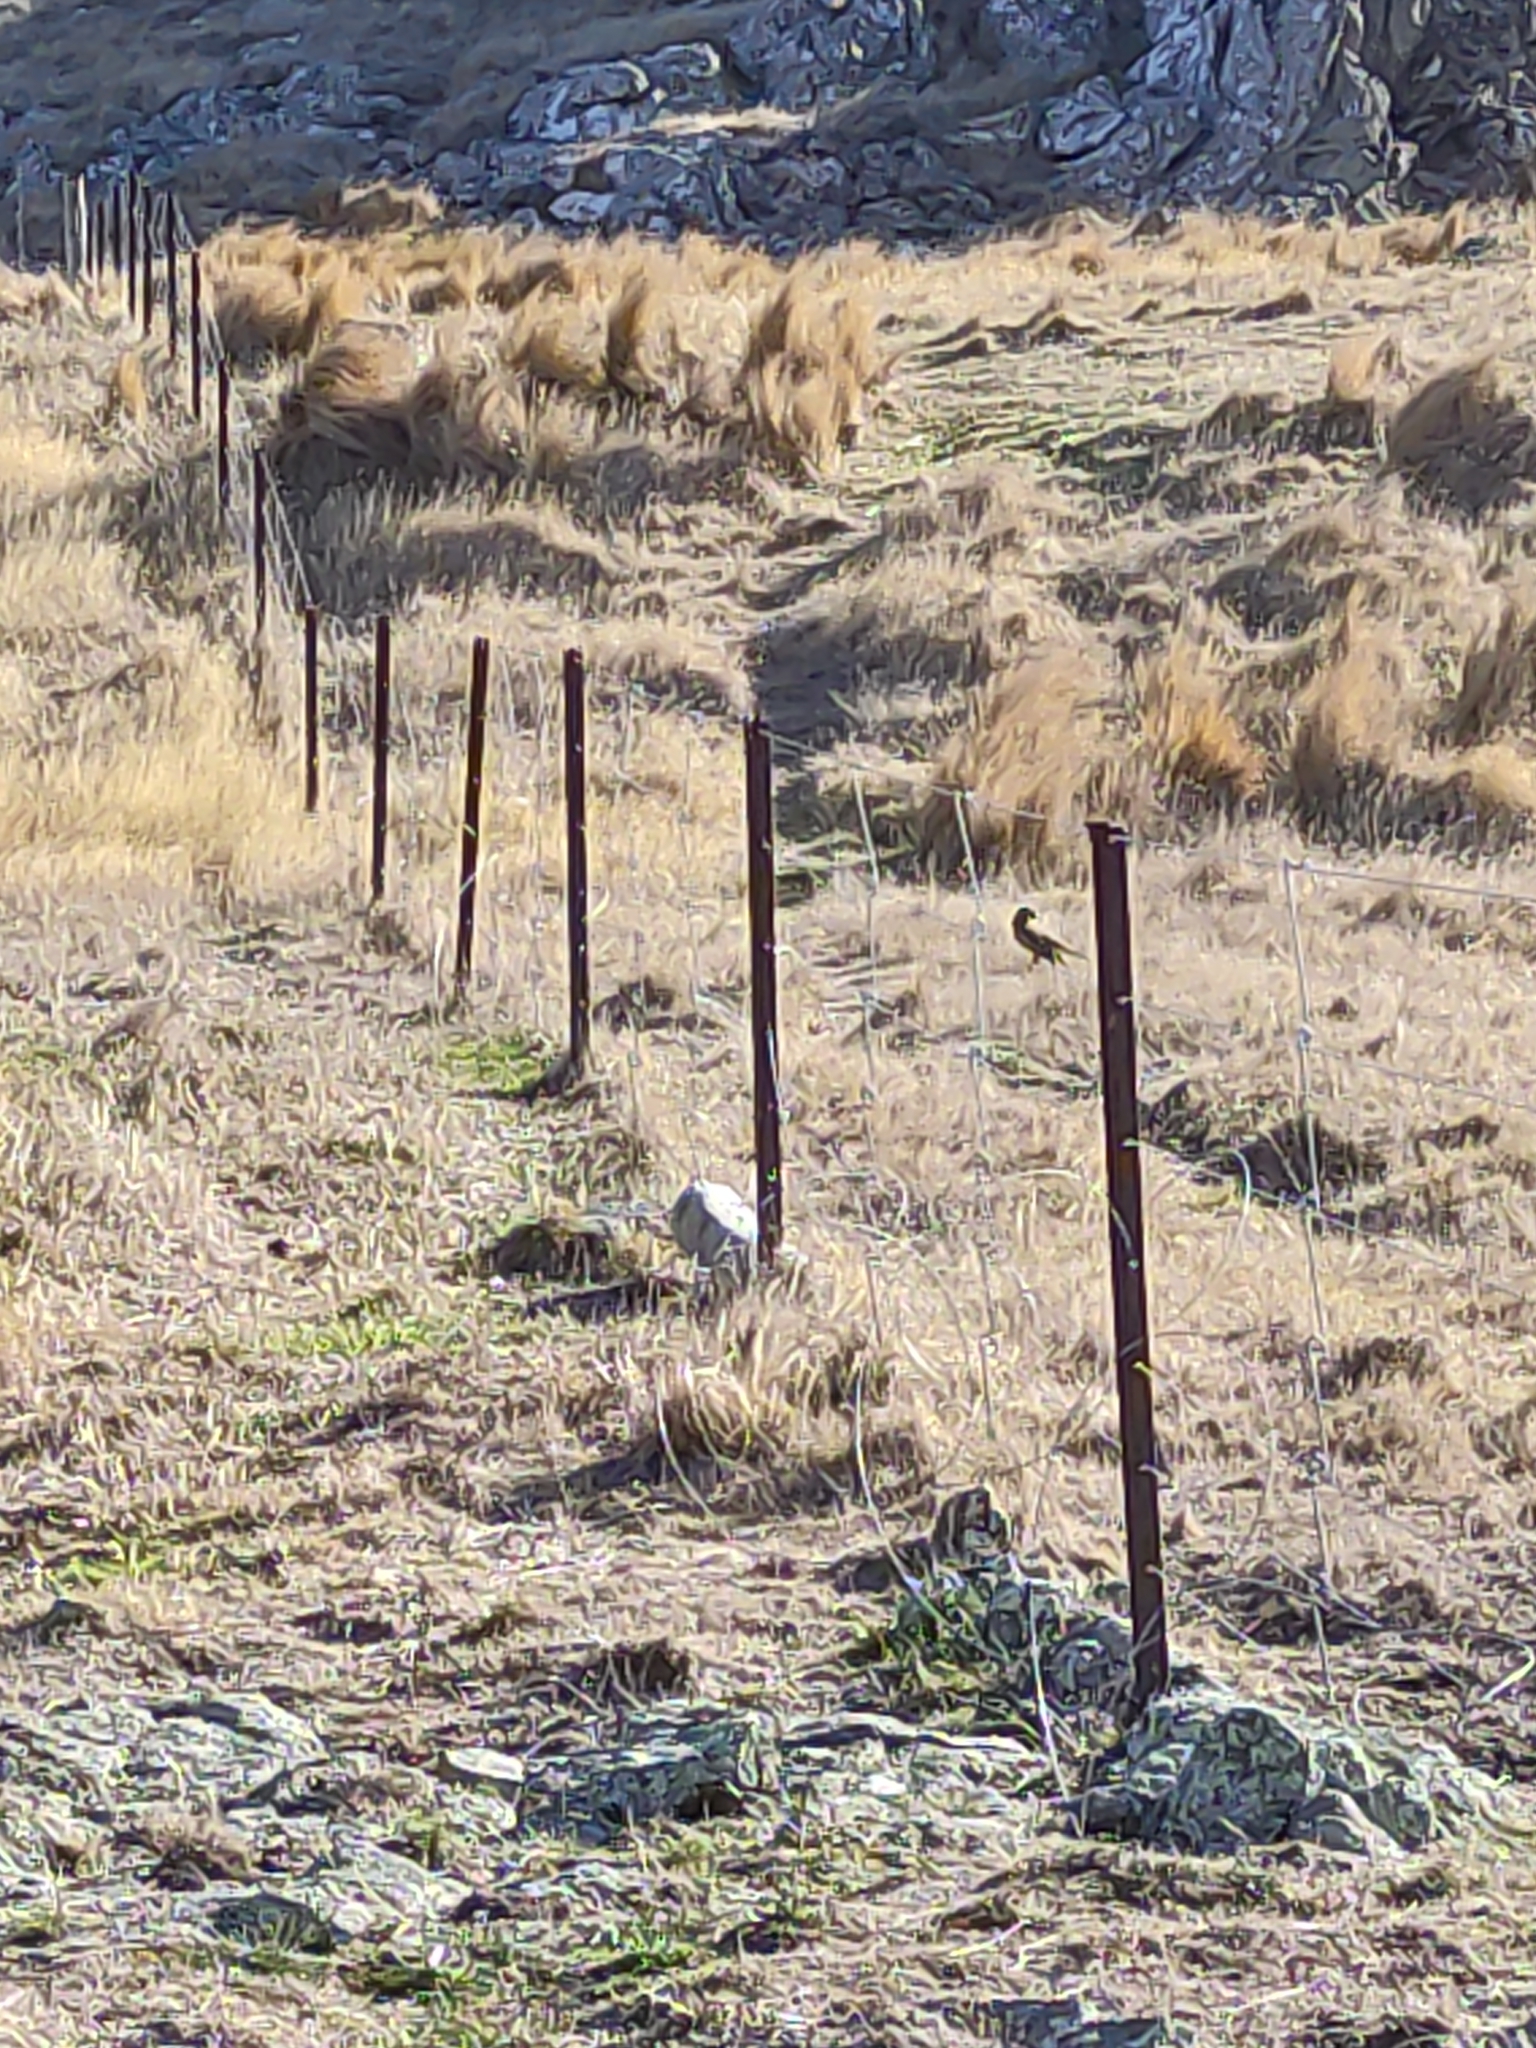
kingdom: Animalia
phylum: Chordata
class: Aves
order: Accipitriformes
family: Accipitridae
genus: Circus
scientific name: Circus approximans
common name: Swamp harrier
